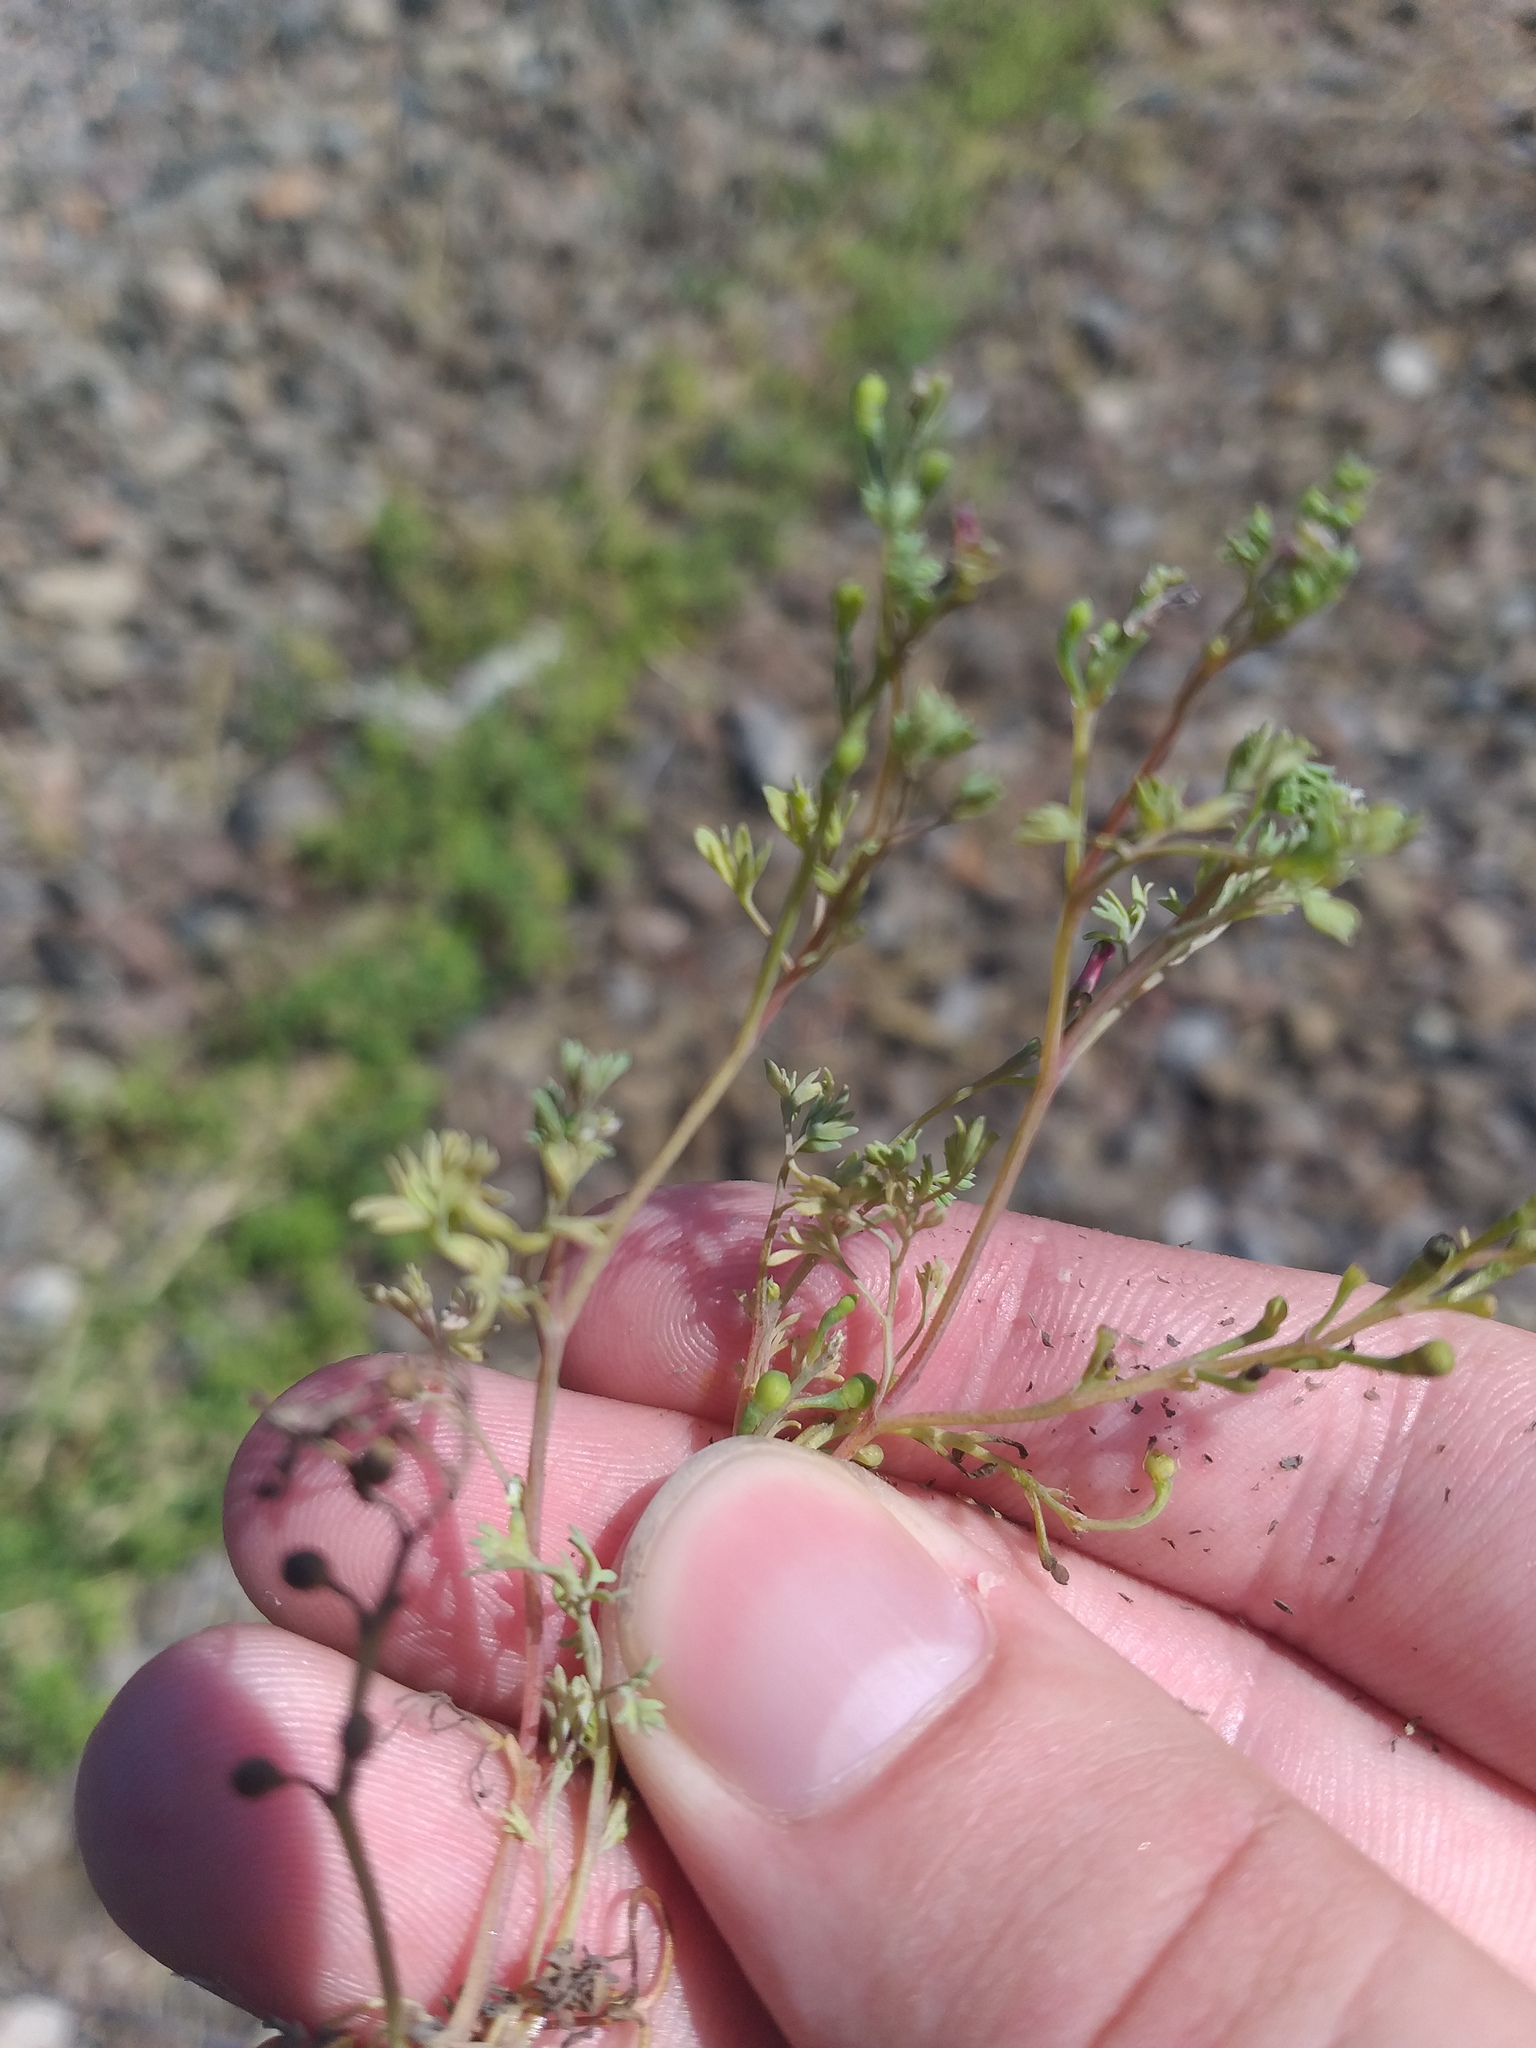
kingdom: Plantae
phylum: Tracheophyta
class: Magnoliopsida
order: Ranunculales
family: Papaveraceae
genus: Fumaria
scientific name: Fumaria schleicheri
